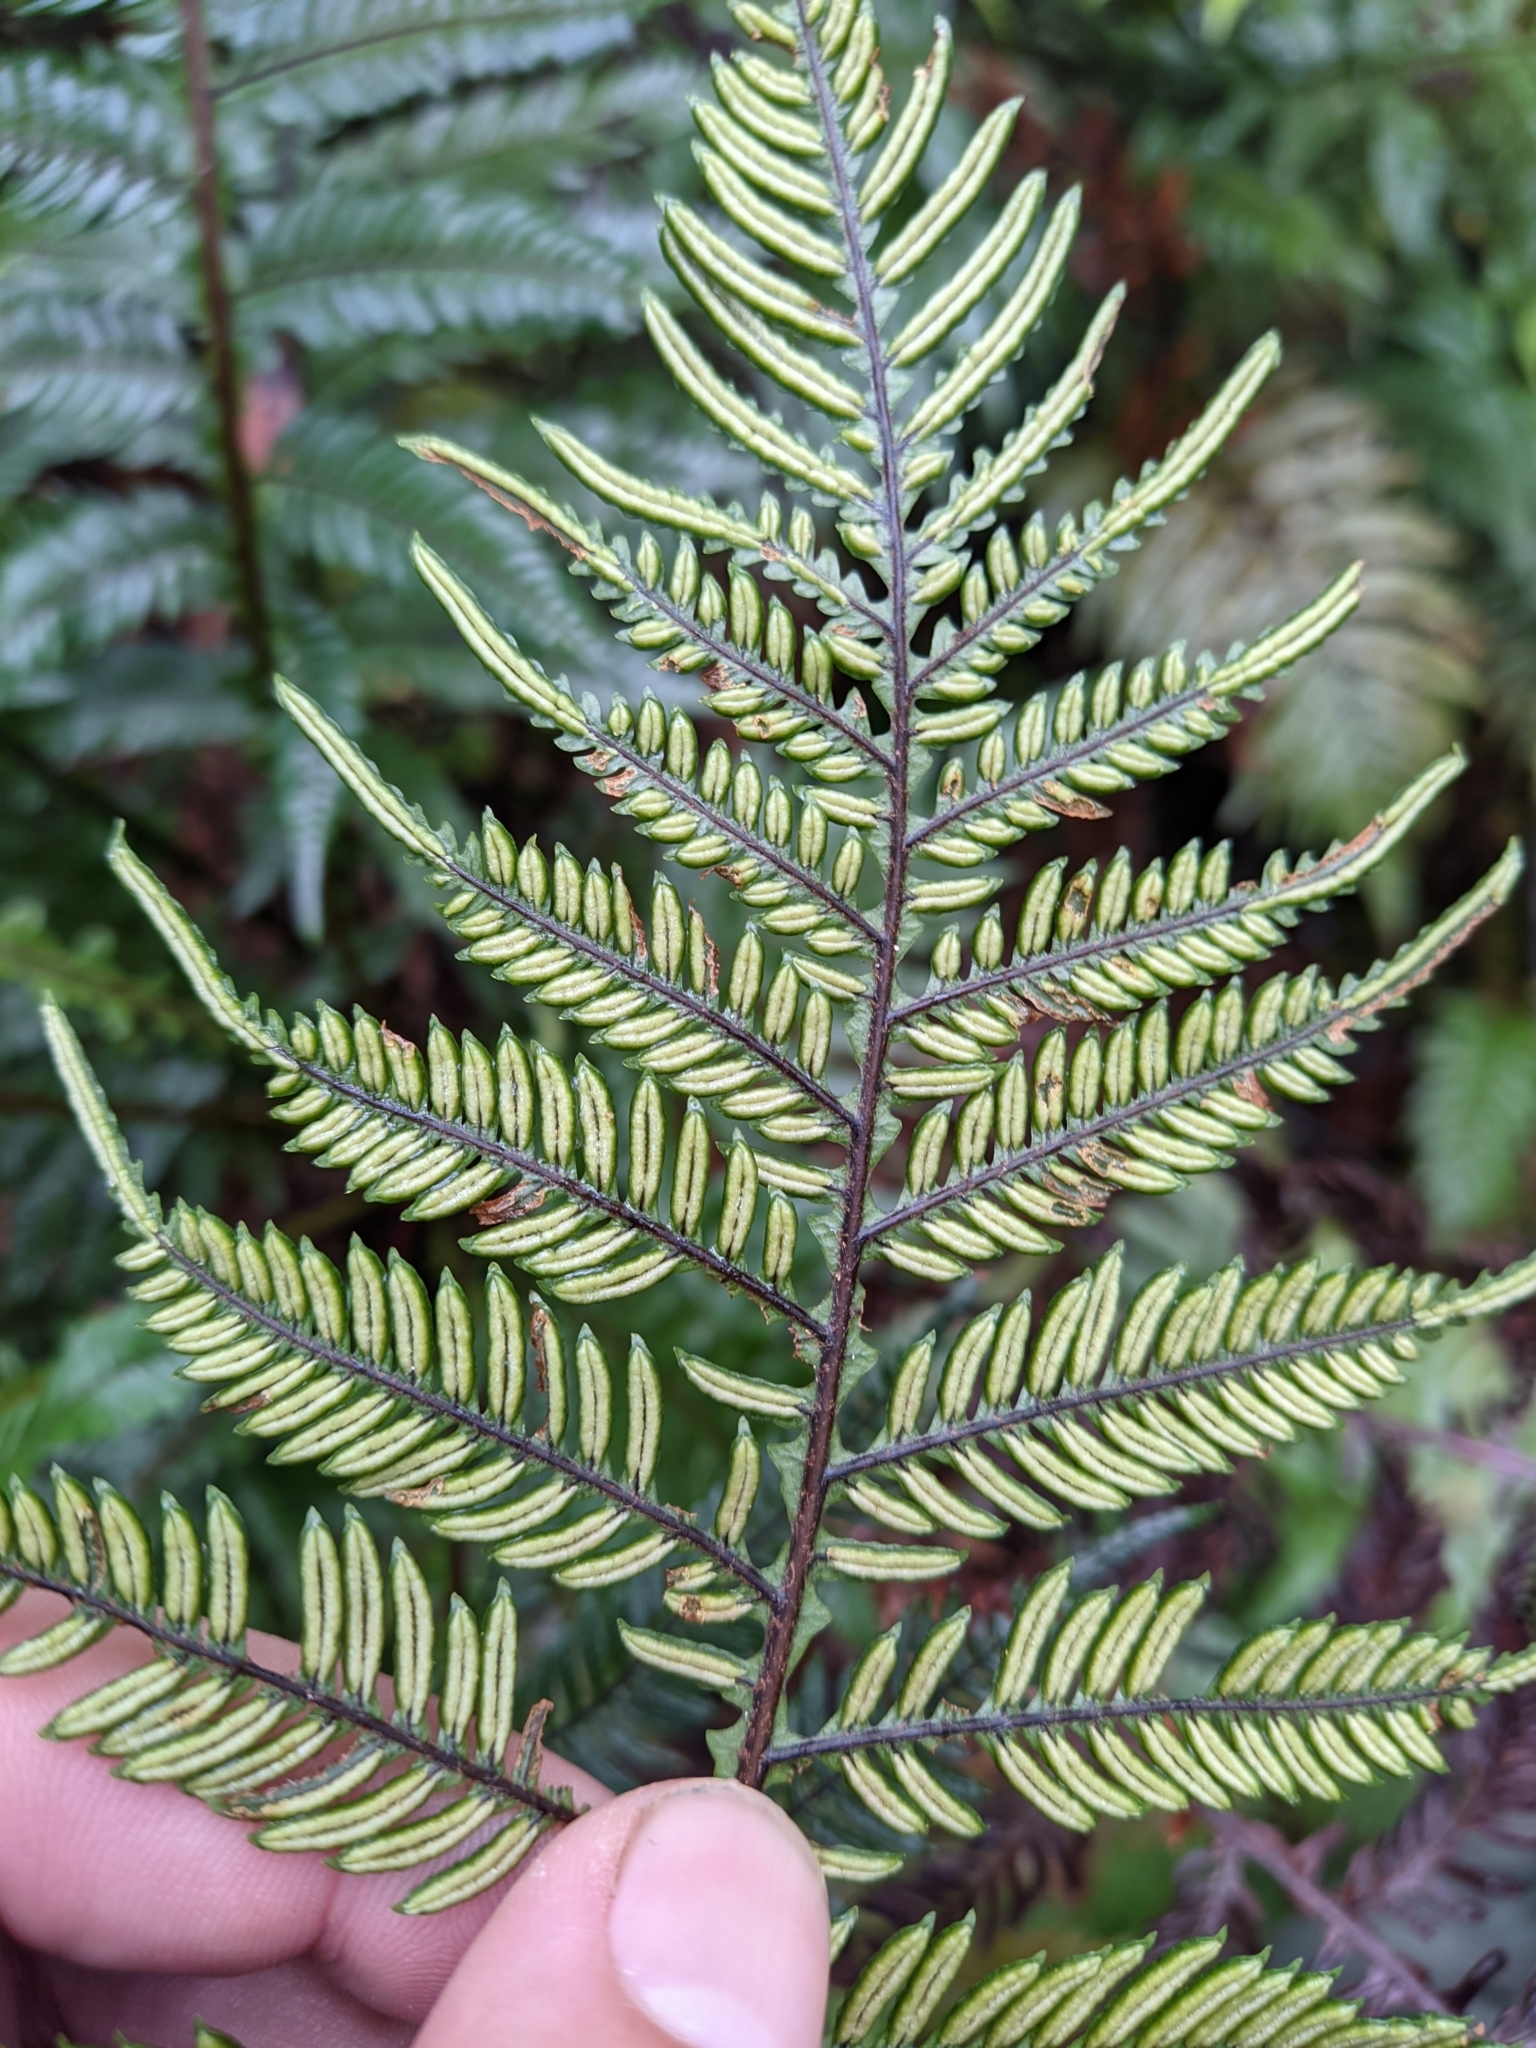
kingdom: Plantae
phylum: Tracheophyta
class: Polypodiopsida
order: Polypodiales
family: Blechnaceae
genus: Diploblechnum
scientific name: Diploblechnum fraseri
